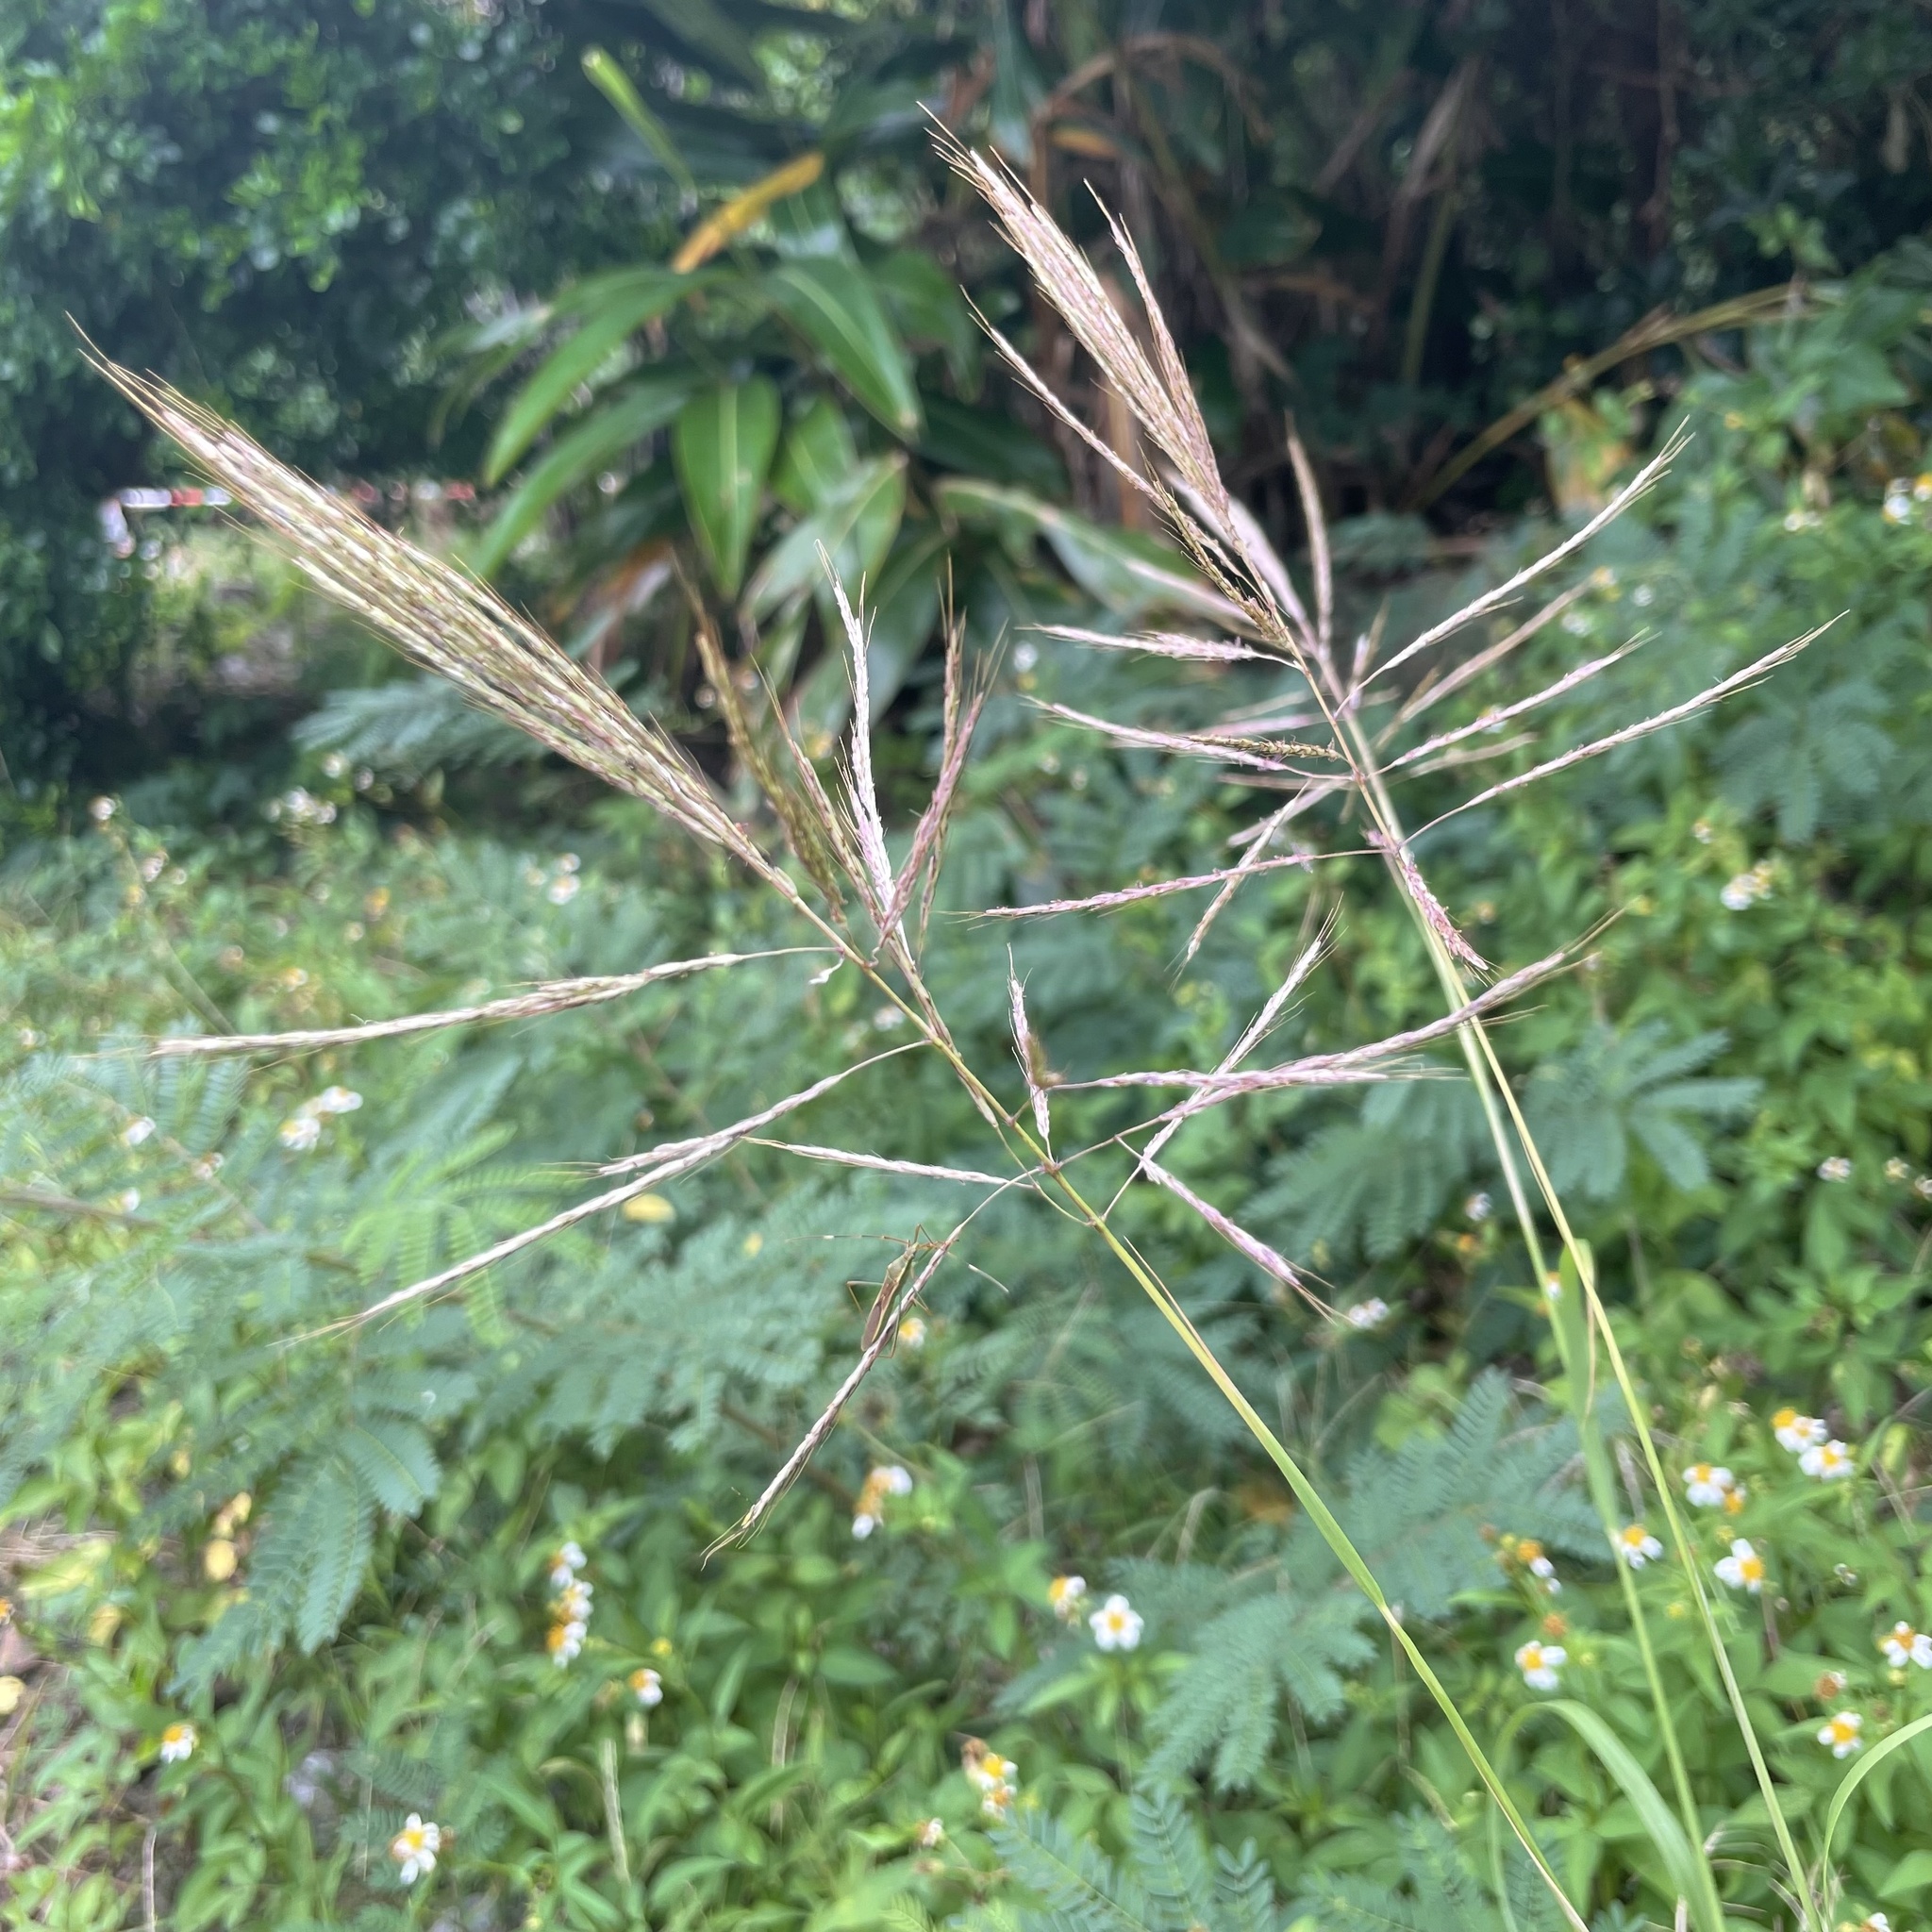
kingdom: Plantae
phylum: Tracheophyta
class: Liliopsida
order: Poales
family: Poaceae
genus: Bothriochloa
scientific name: Bothriochloa bladhii
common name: Caucasian bluestem
